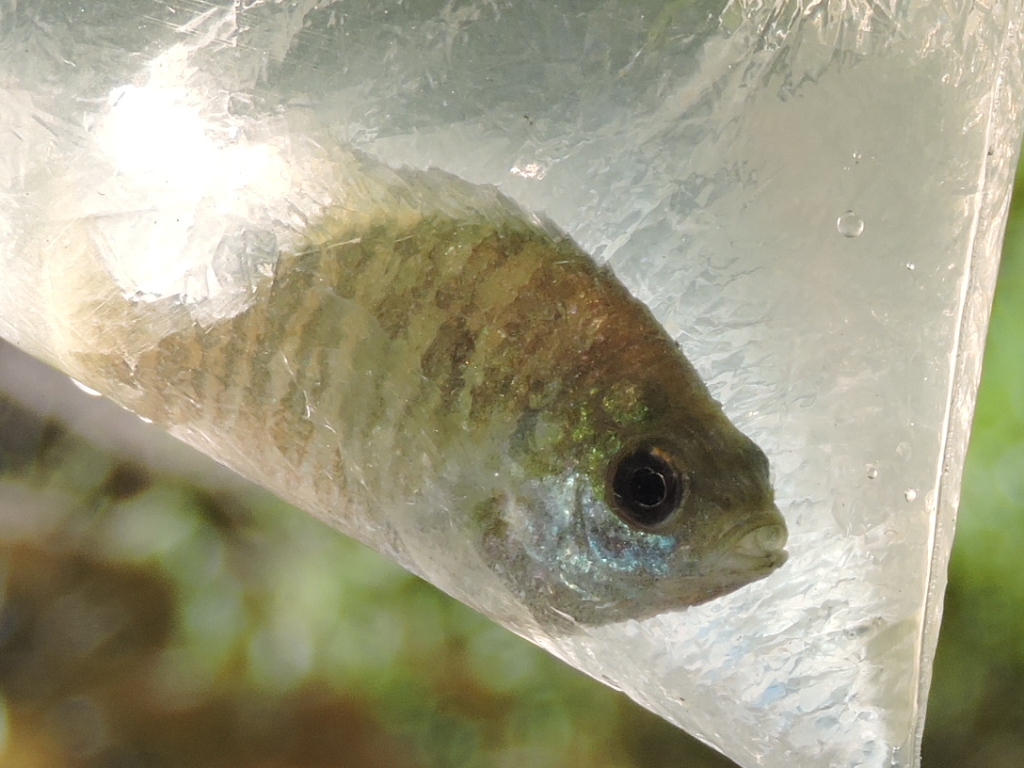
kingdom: Animalia
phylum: Chordata
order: Perciformes
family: Centrarchidae
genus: Lepomis
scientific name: Lepomis
